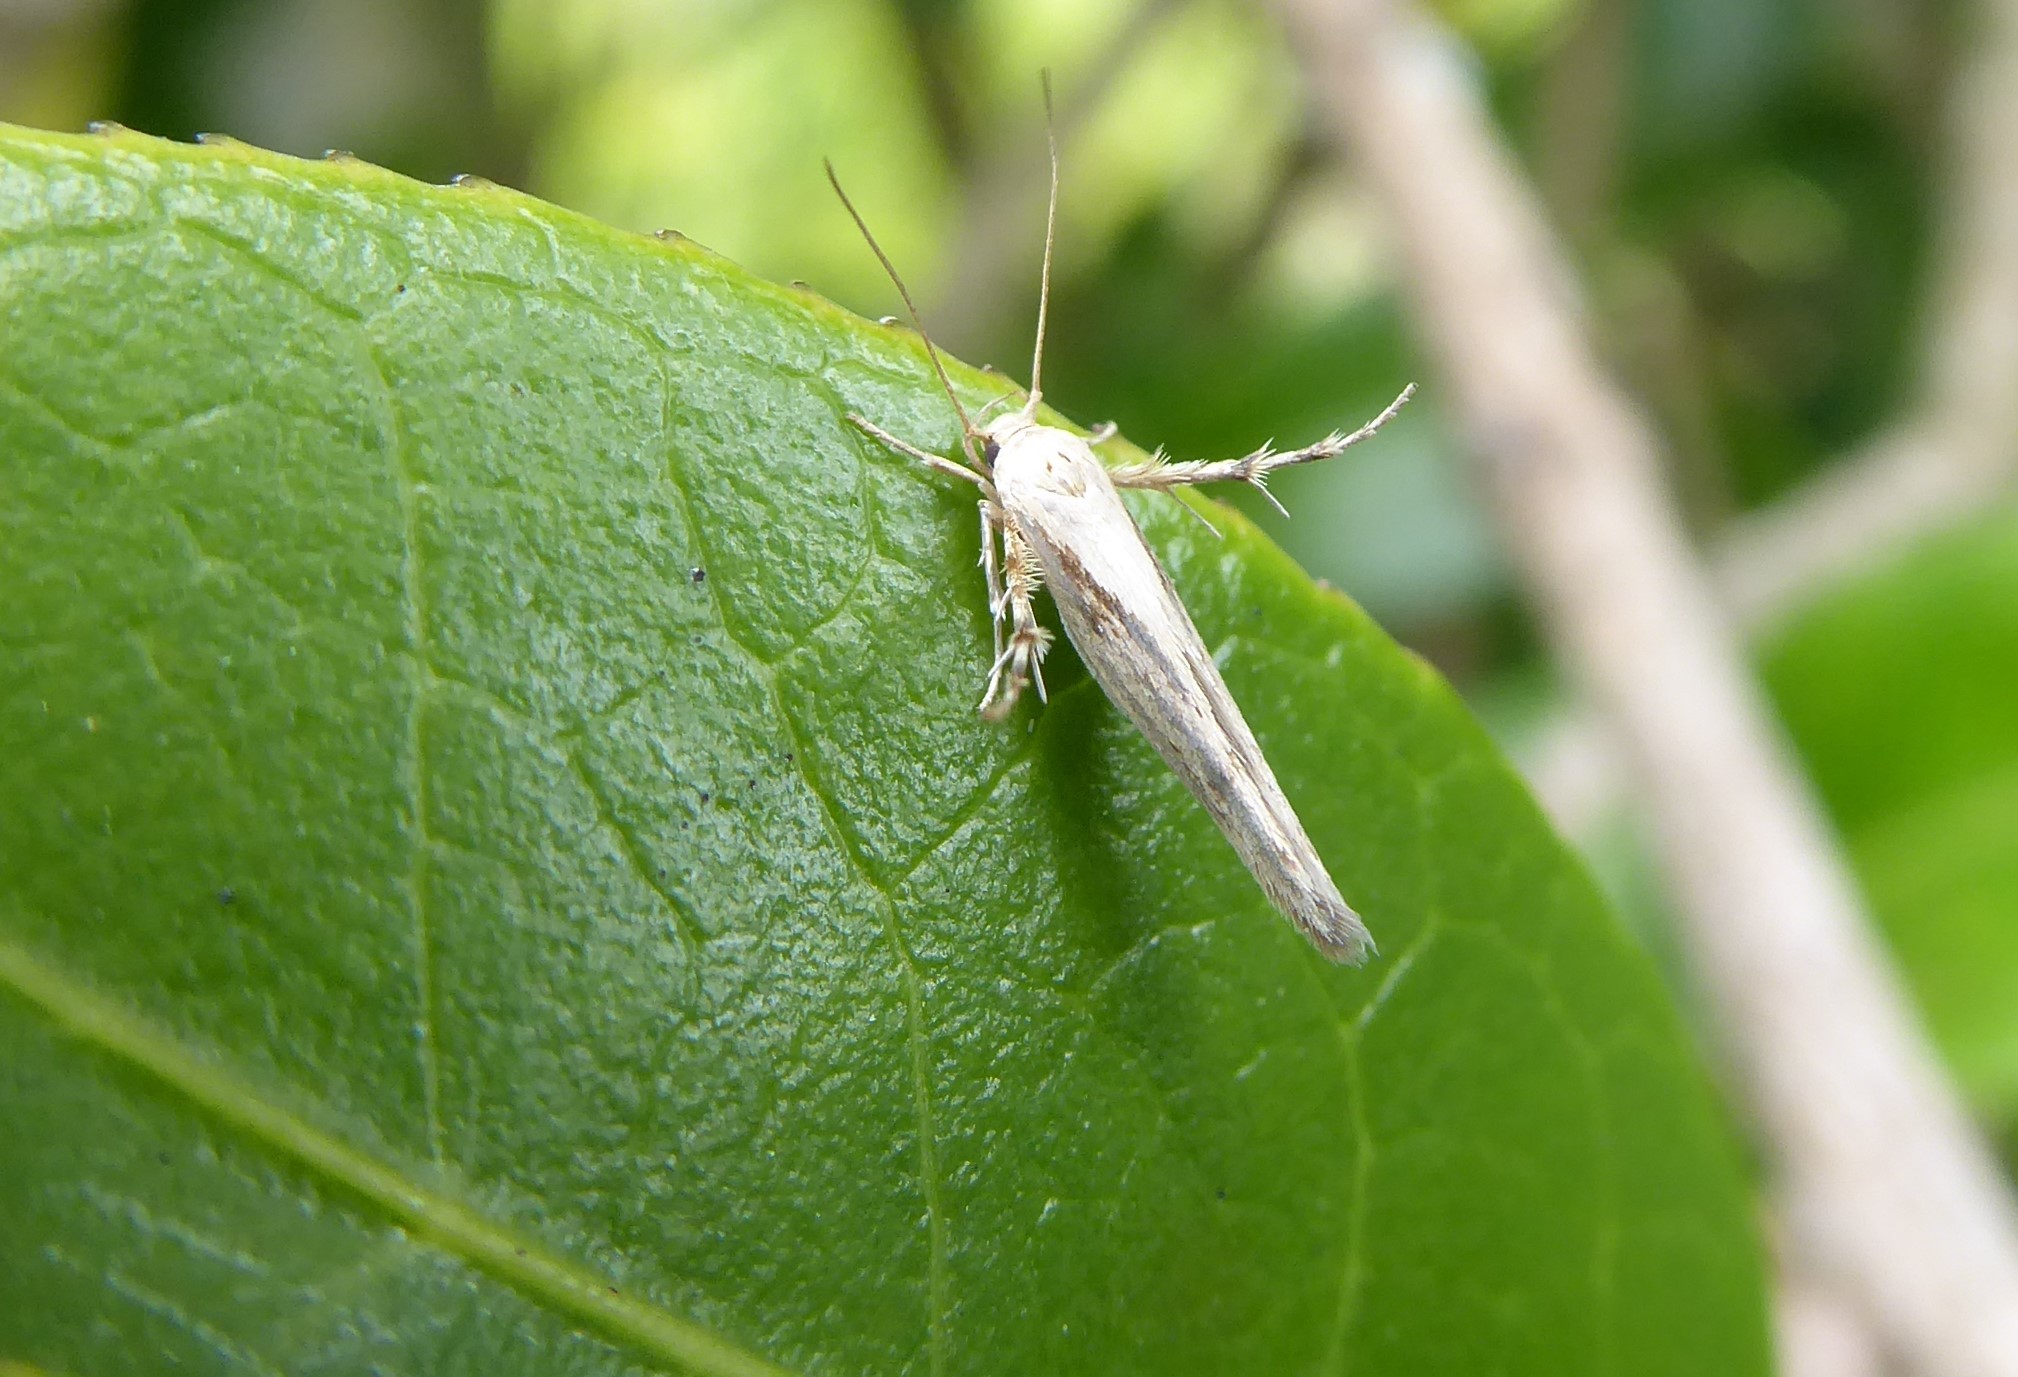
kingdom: Animalia
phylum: Arthropoda
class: Insecta
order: Lepidoptera
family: Stathmopodidae
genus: Stathmopoda
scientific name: Stathmopoda plumbiflua
